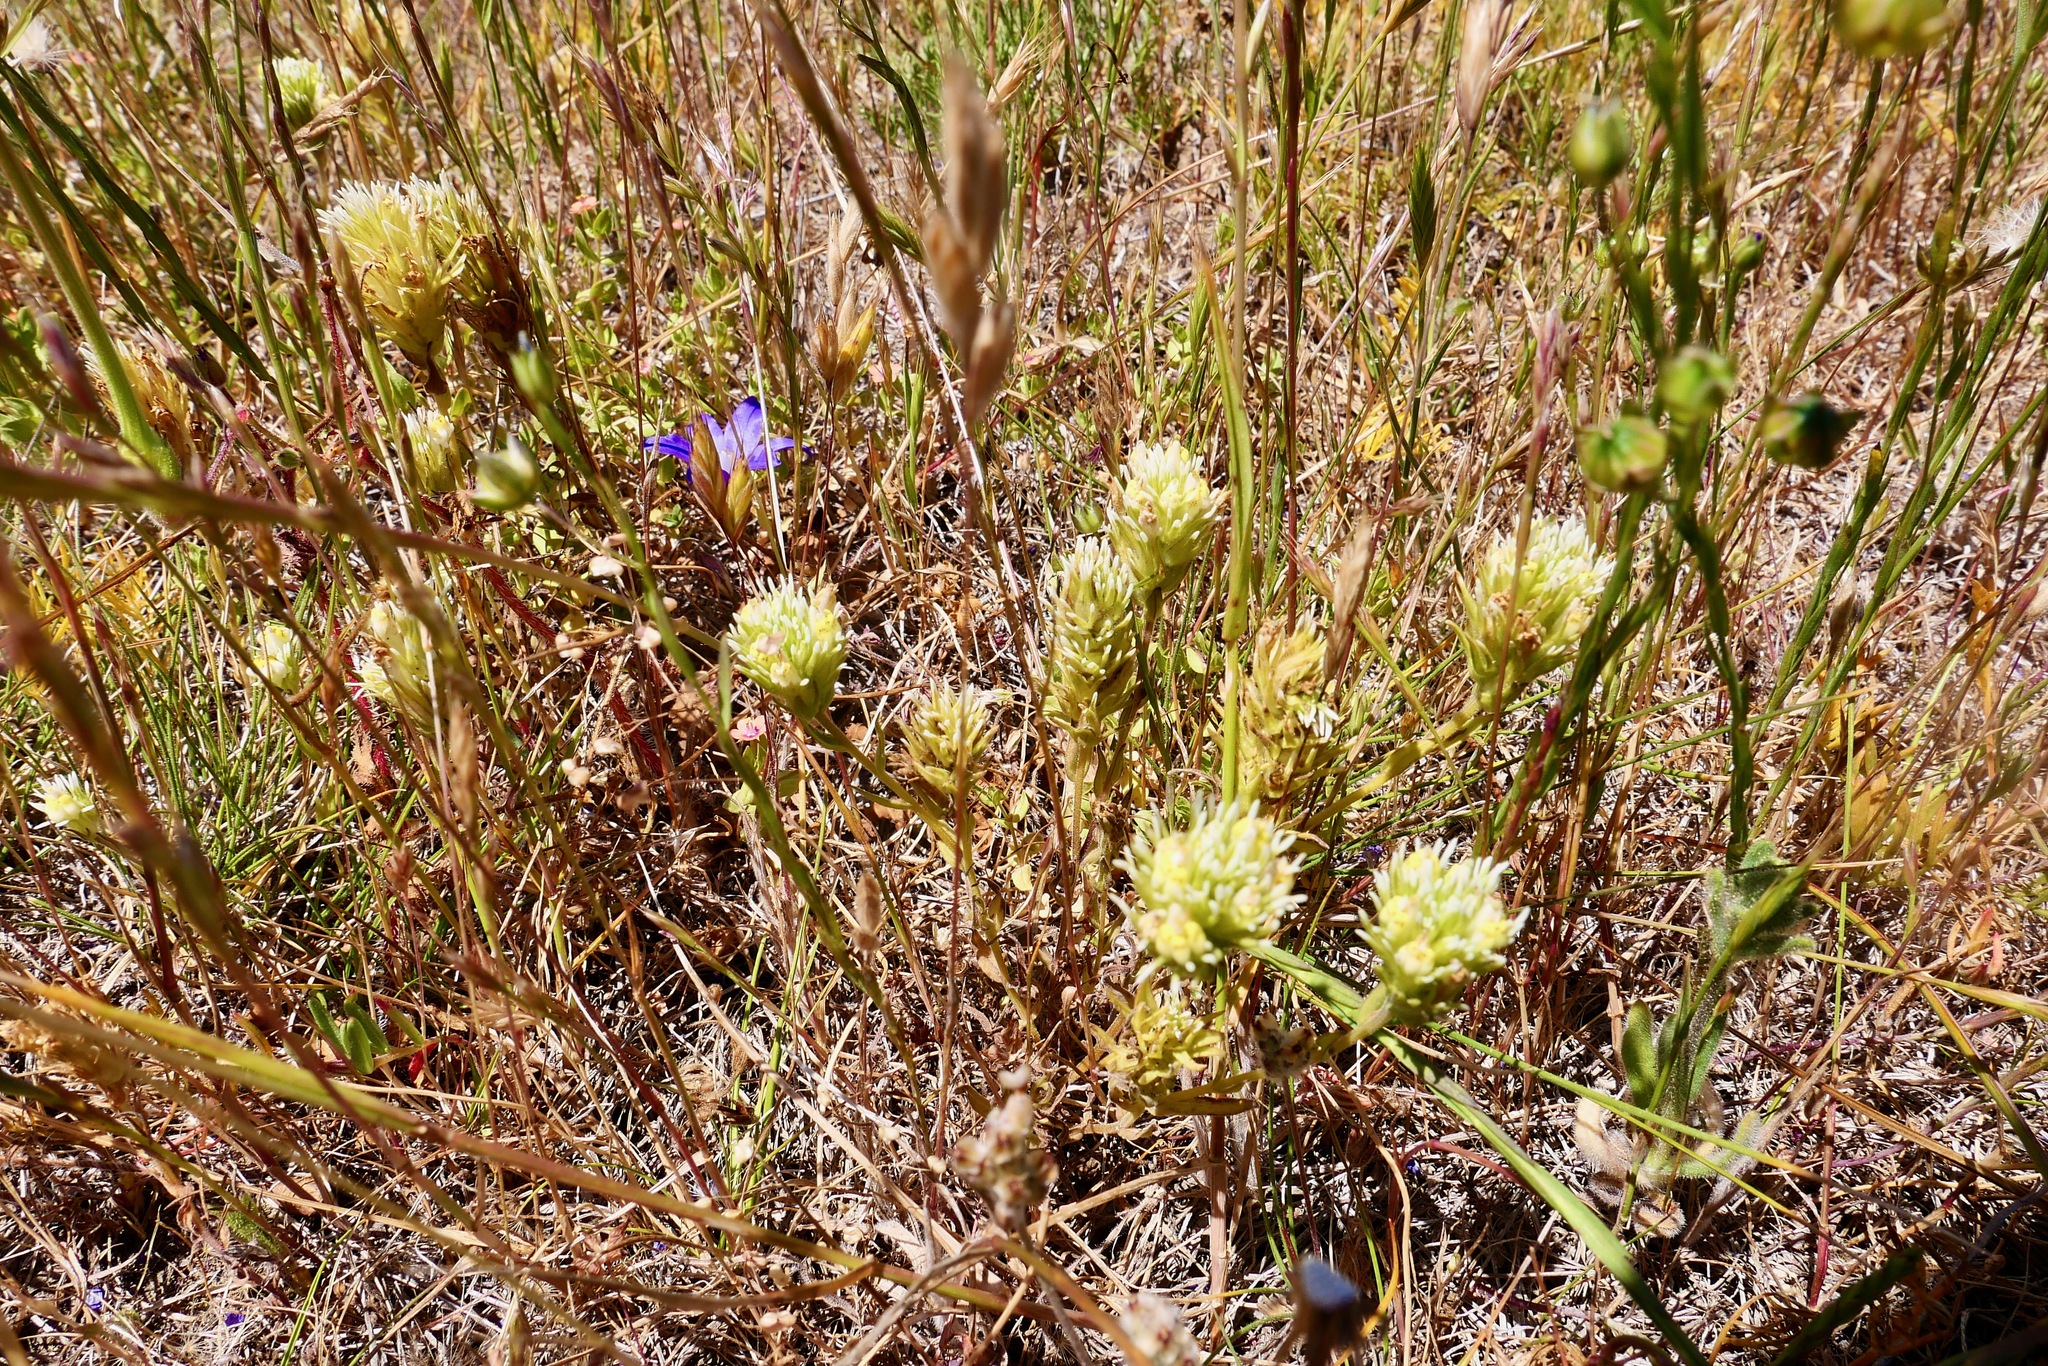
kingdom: Plantae
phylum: Tracheophyta
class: Magnoliopsida
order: Lamiales
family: Orobanchaceae
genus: Castilleja
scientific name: Castilleja densiflora
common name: Dense-flower indian paintbrush
